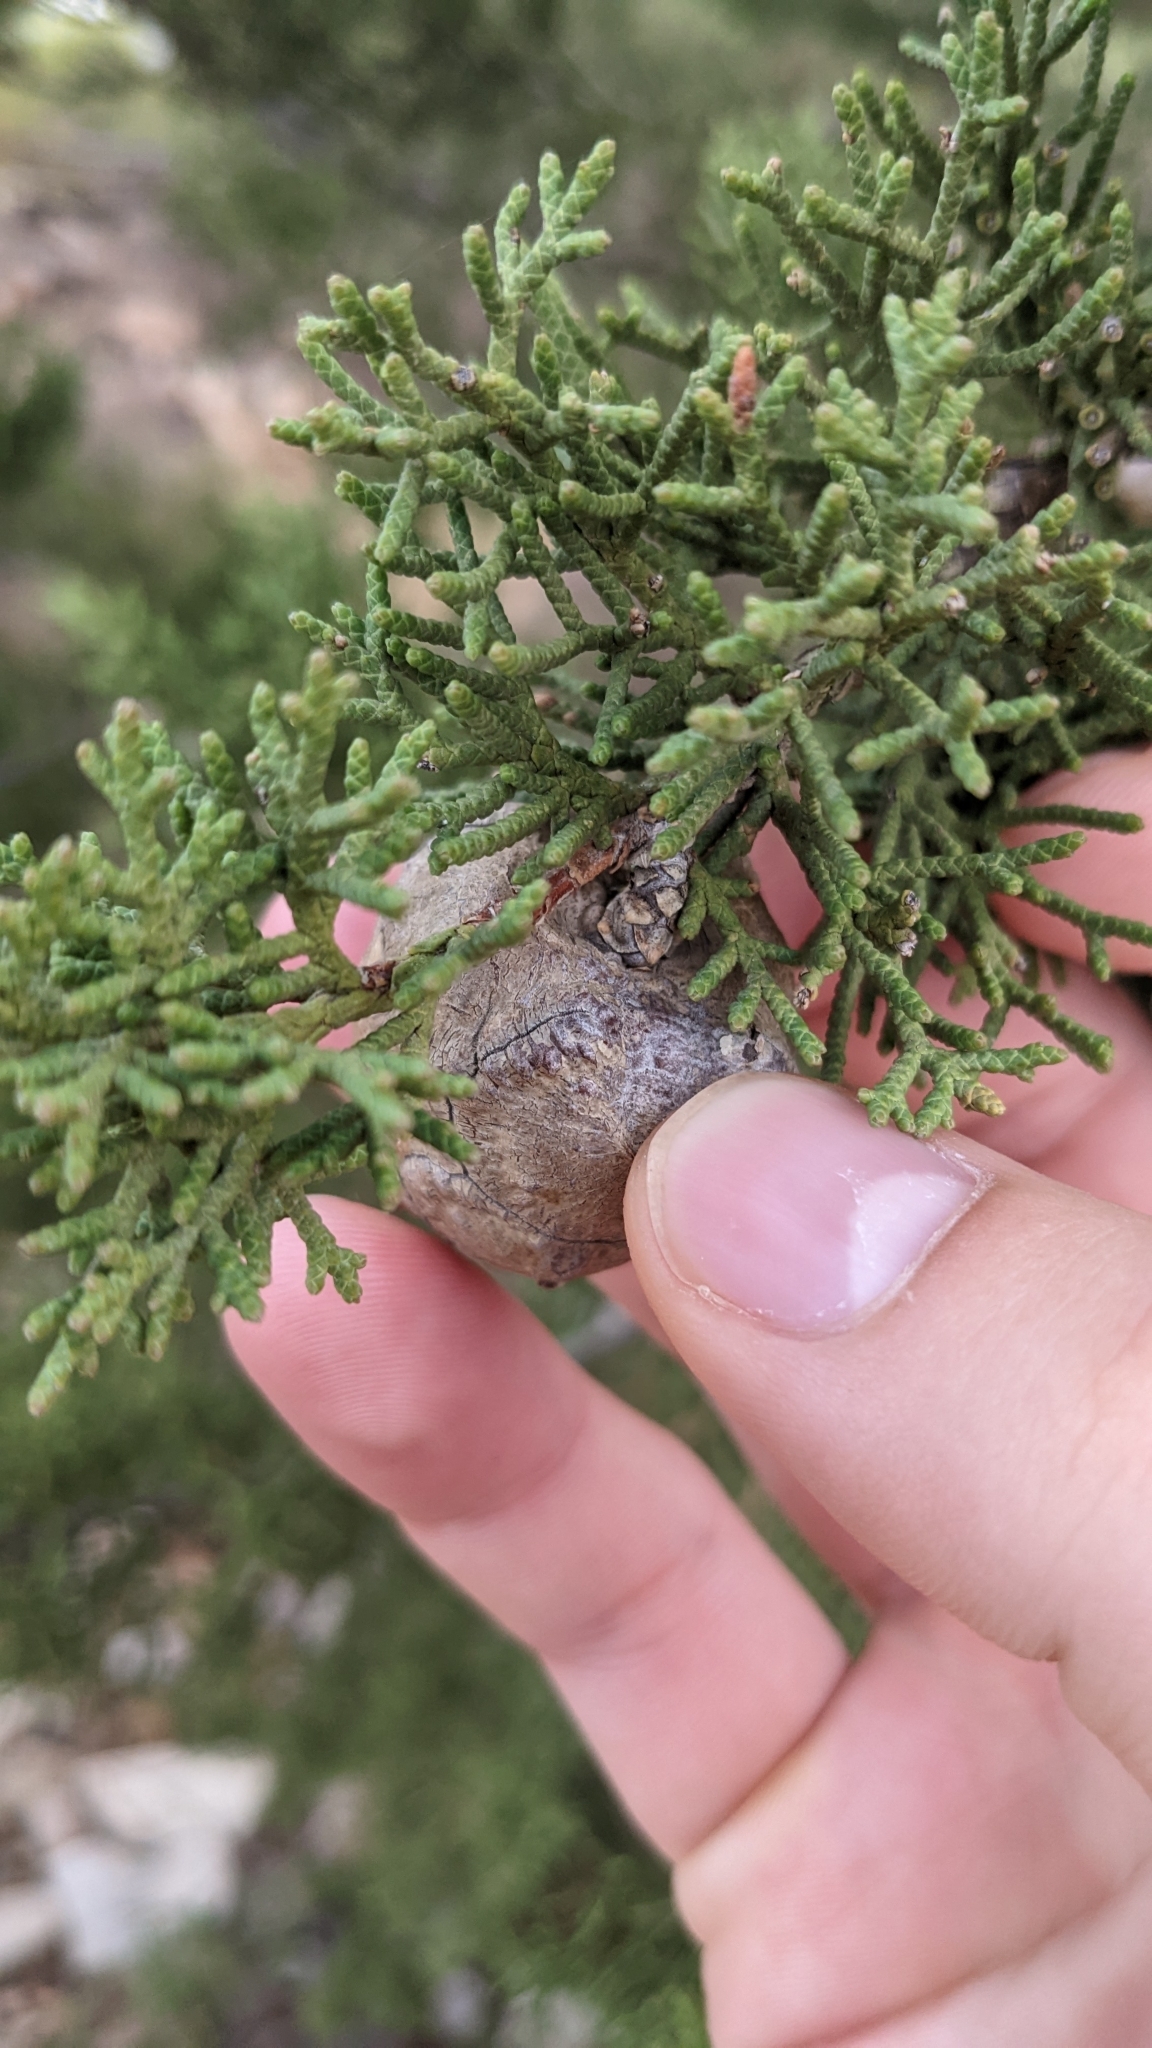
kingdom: Plantae
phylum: Tracheophyta
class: Pinopsida
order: Pinales
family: Cupressaceae
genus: Cupressus
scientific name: Cupressus sempervirens
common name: Italian cypress
